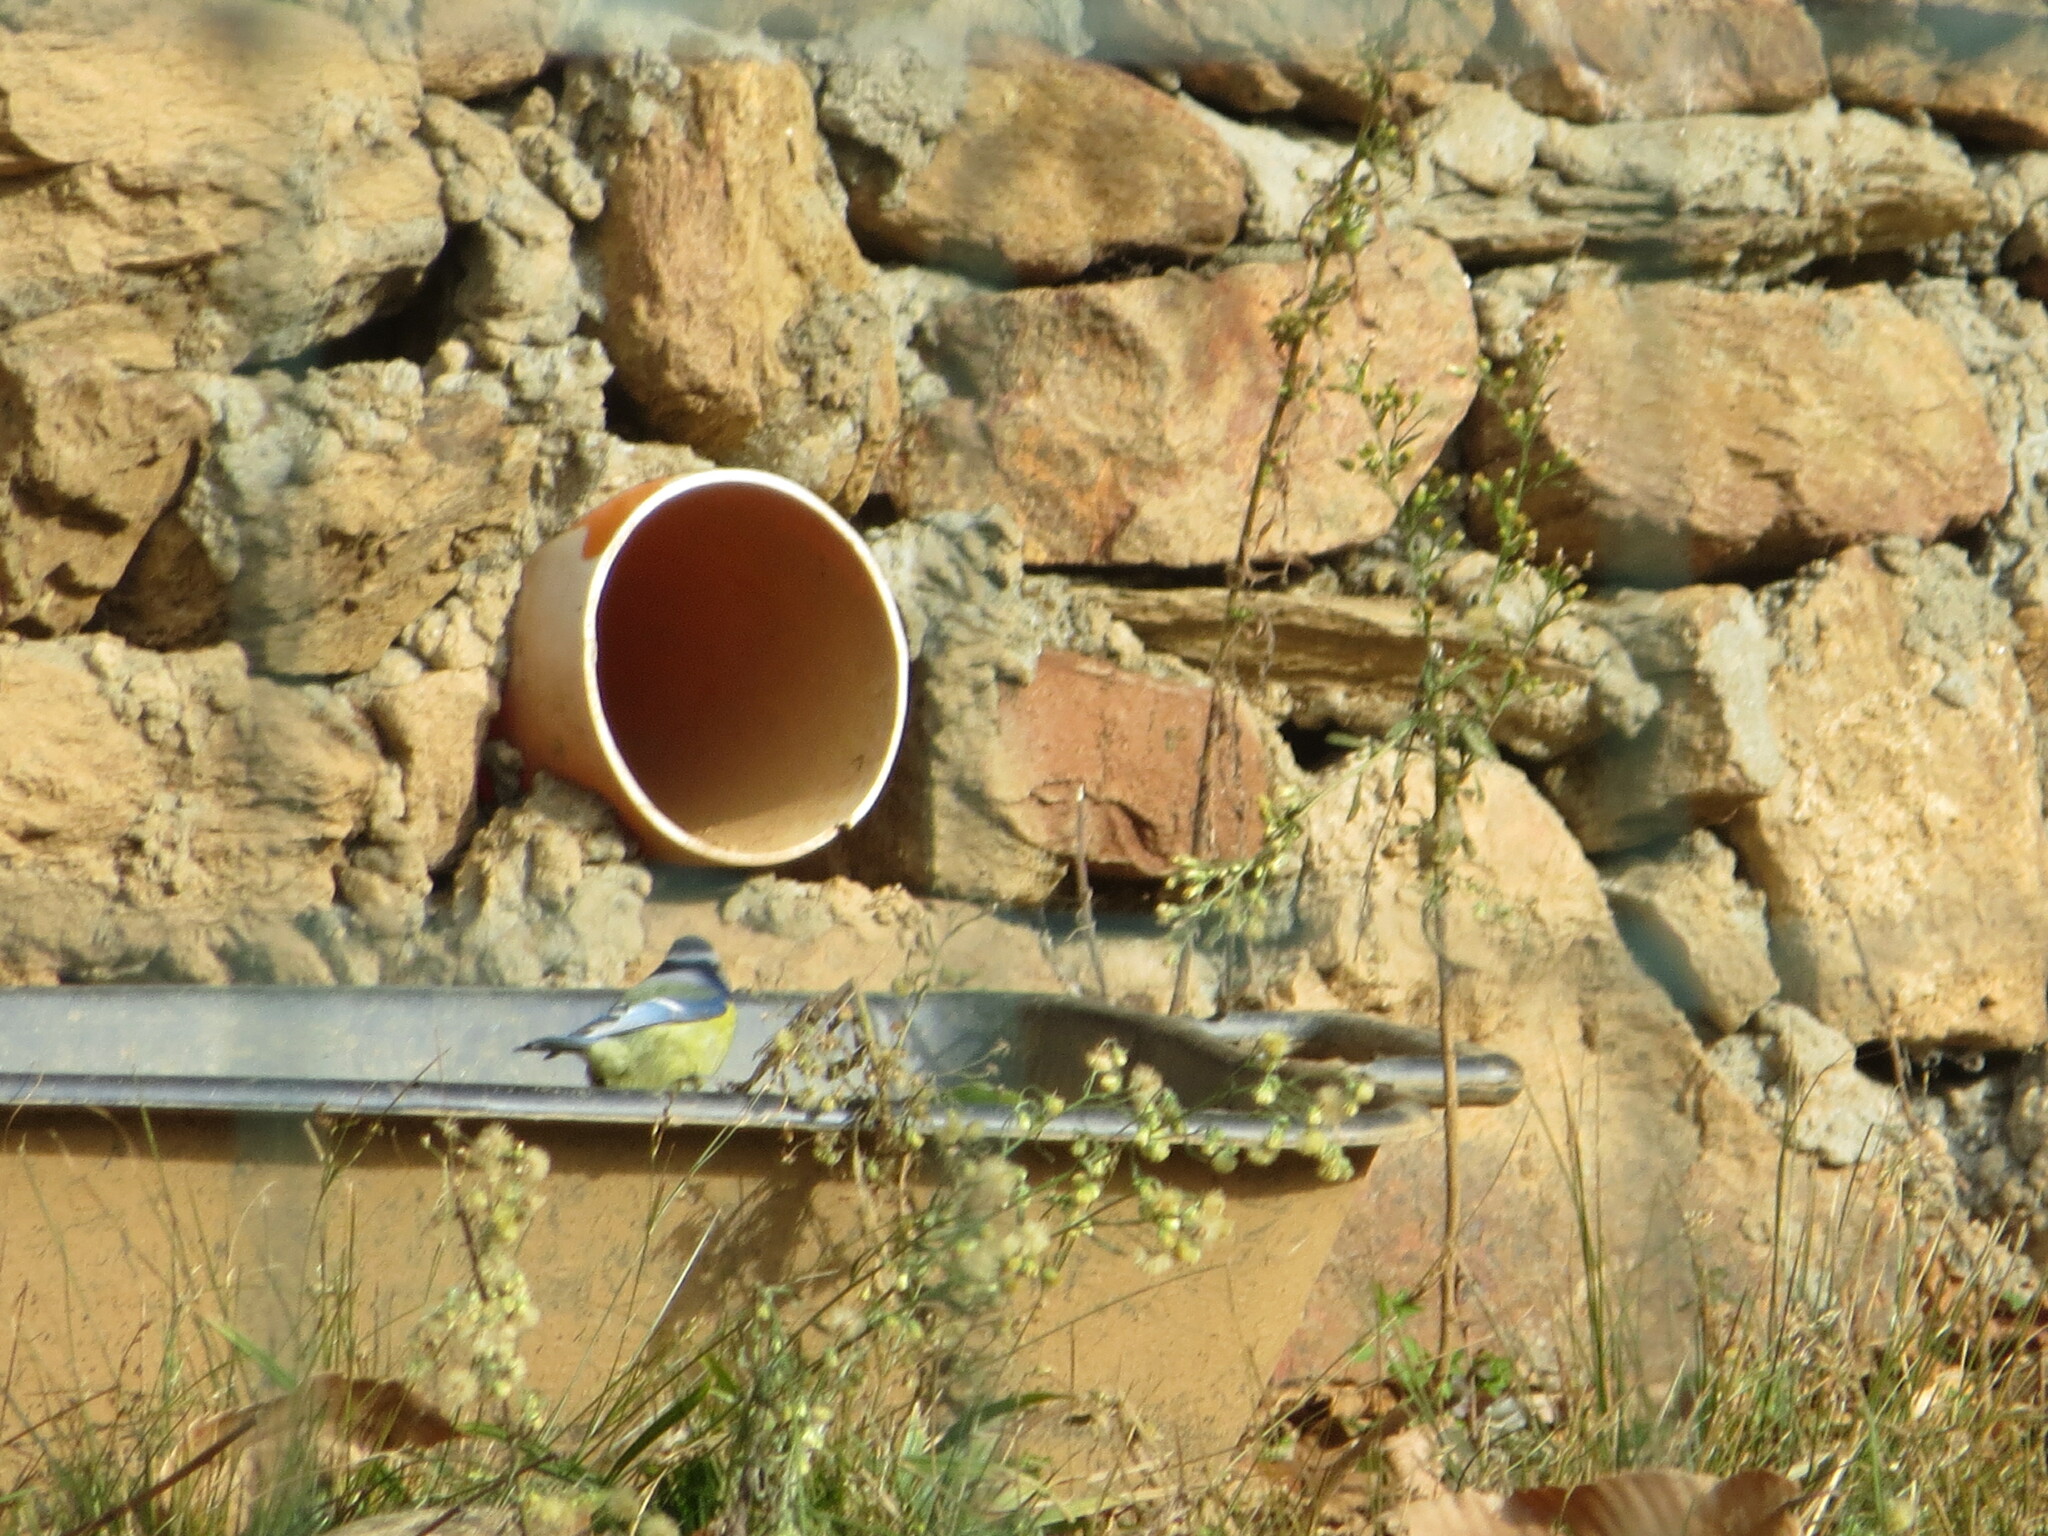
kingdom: Animalia
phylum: Chordata
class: Aves
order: Passeriformes
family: Paridae
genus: Cyanistes
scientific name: Cyanistes caeruleus
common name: Eurasian blue tit
